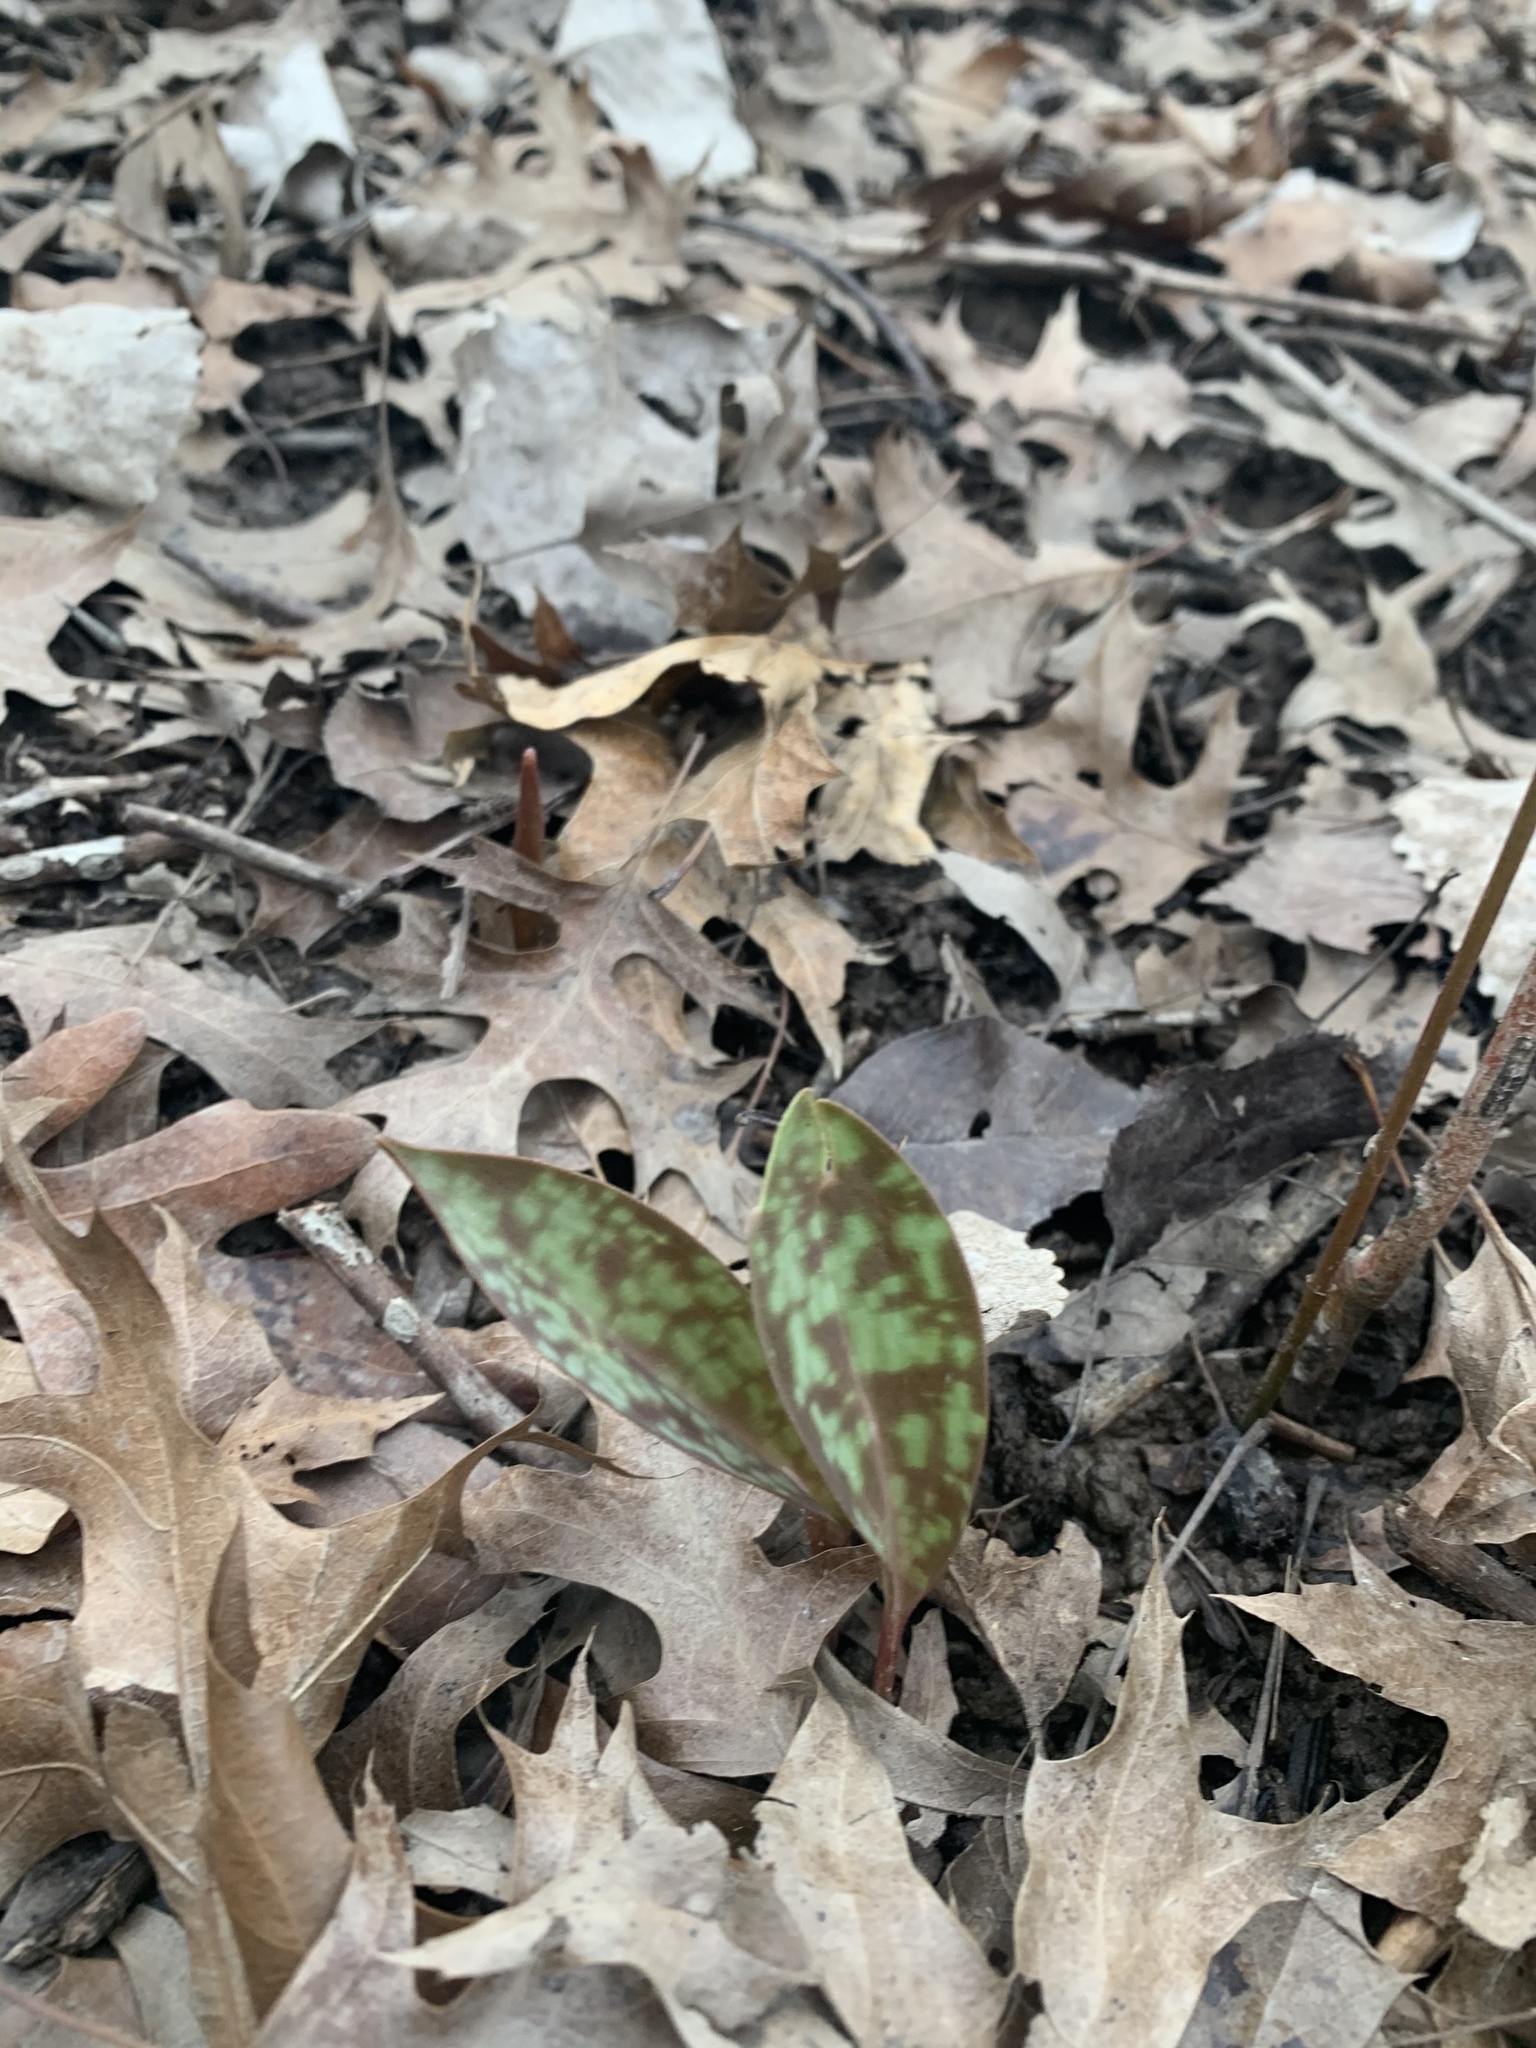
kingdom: Plantae
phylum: Tracheophyta
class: Liliopsida
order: Liliales
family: Liliaceae
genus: Erythronium
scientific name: Erythronium americanum
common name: Yellow adder's-tongue
